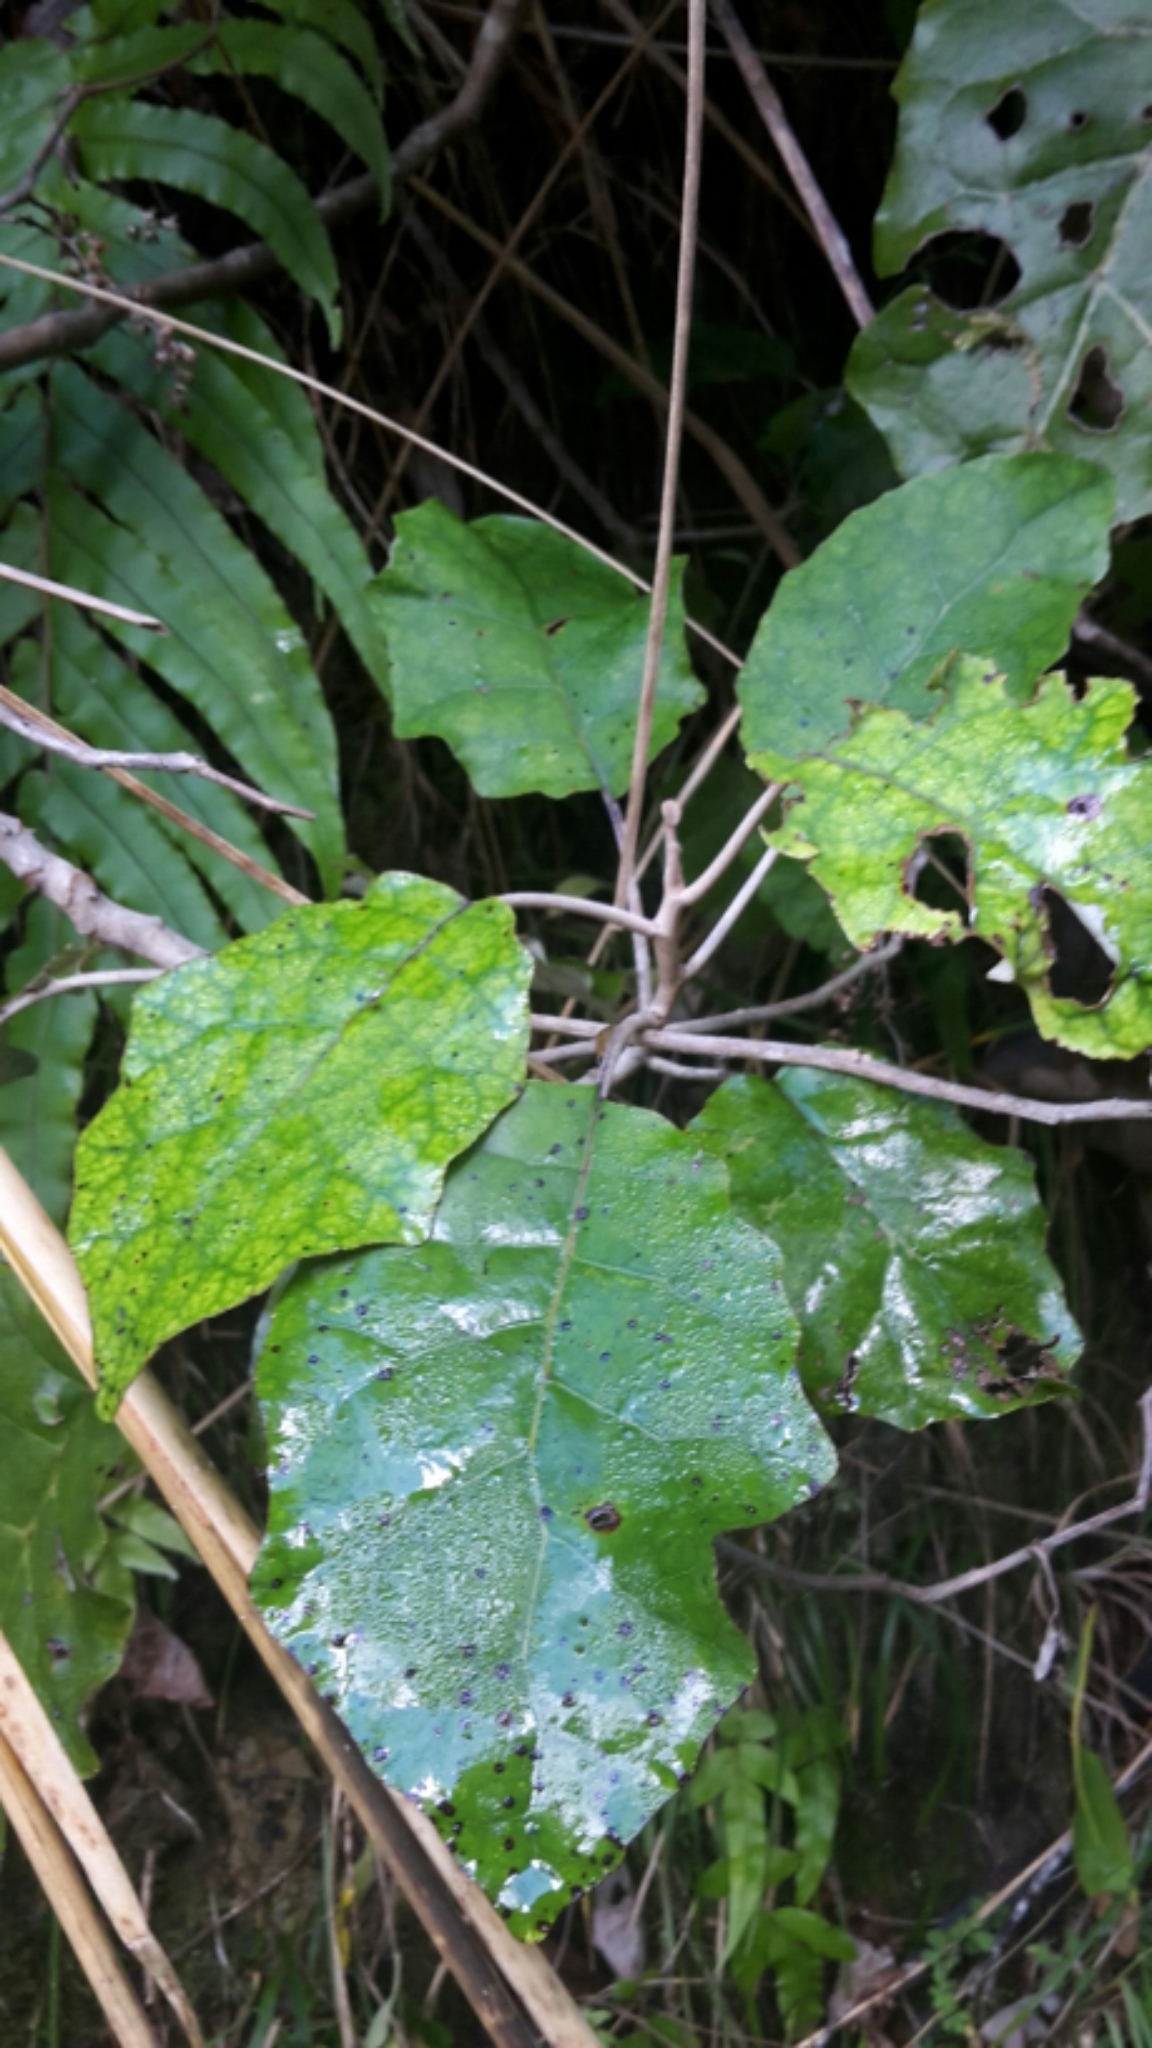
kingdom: Plantae
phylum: Tracheophyta
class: Magnoliopsida
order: Asterales
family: Asteraceae
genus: Brachyglottis
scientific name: Brachyglottis repanda
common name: Hedge ragwort
